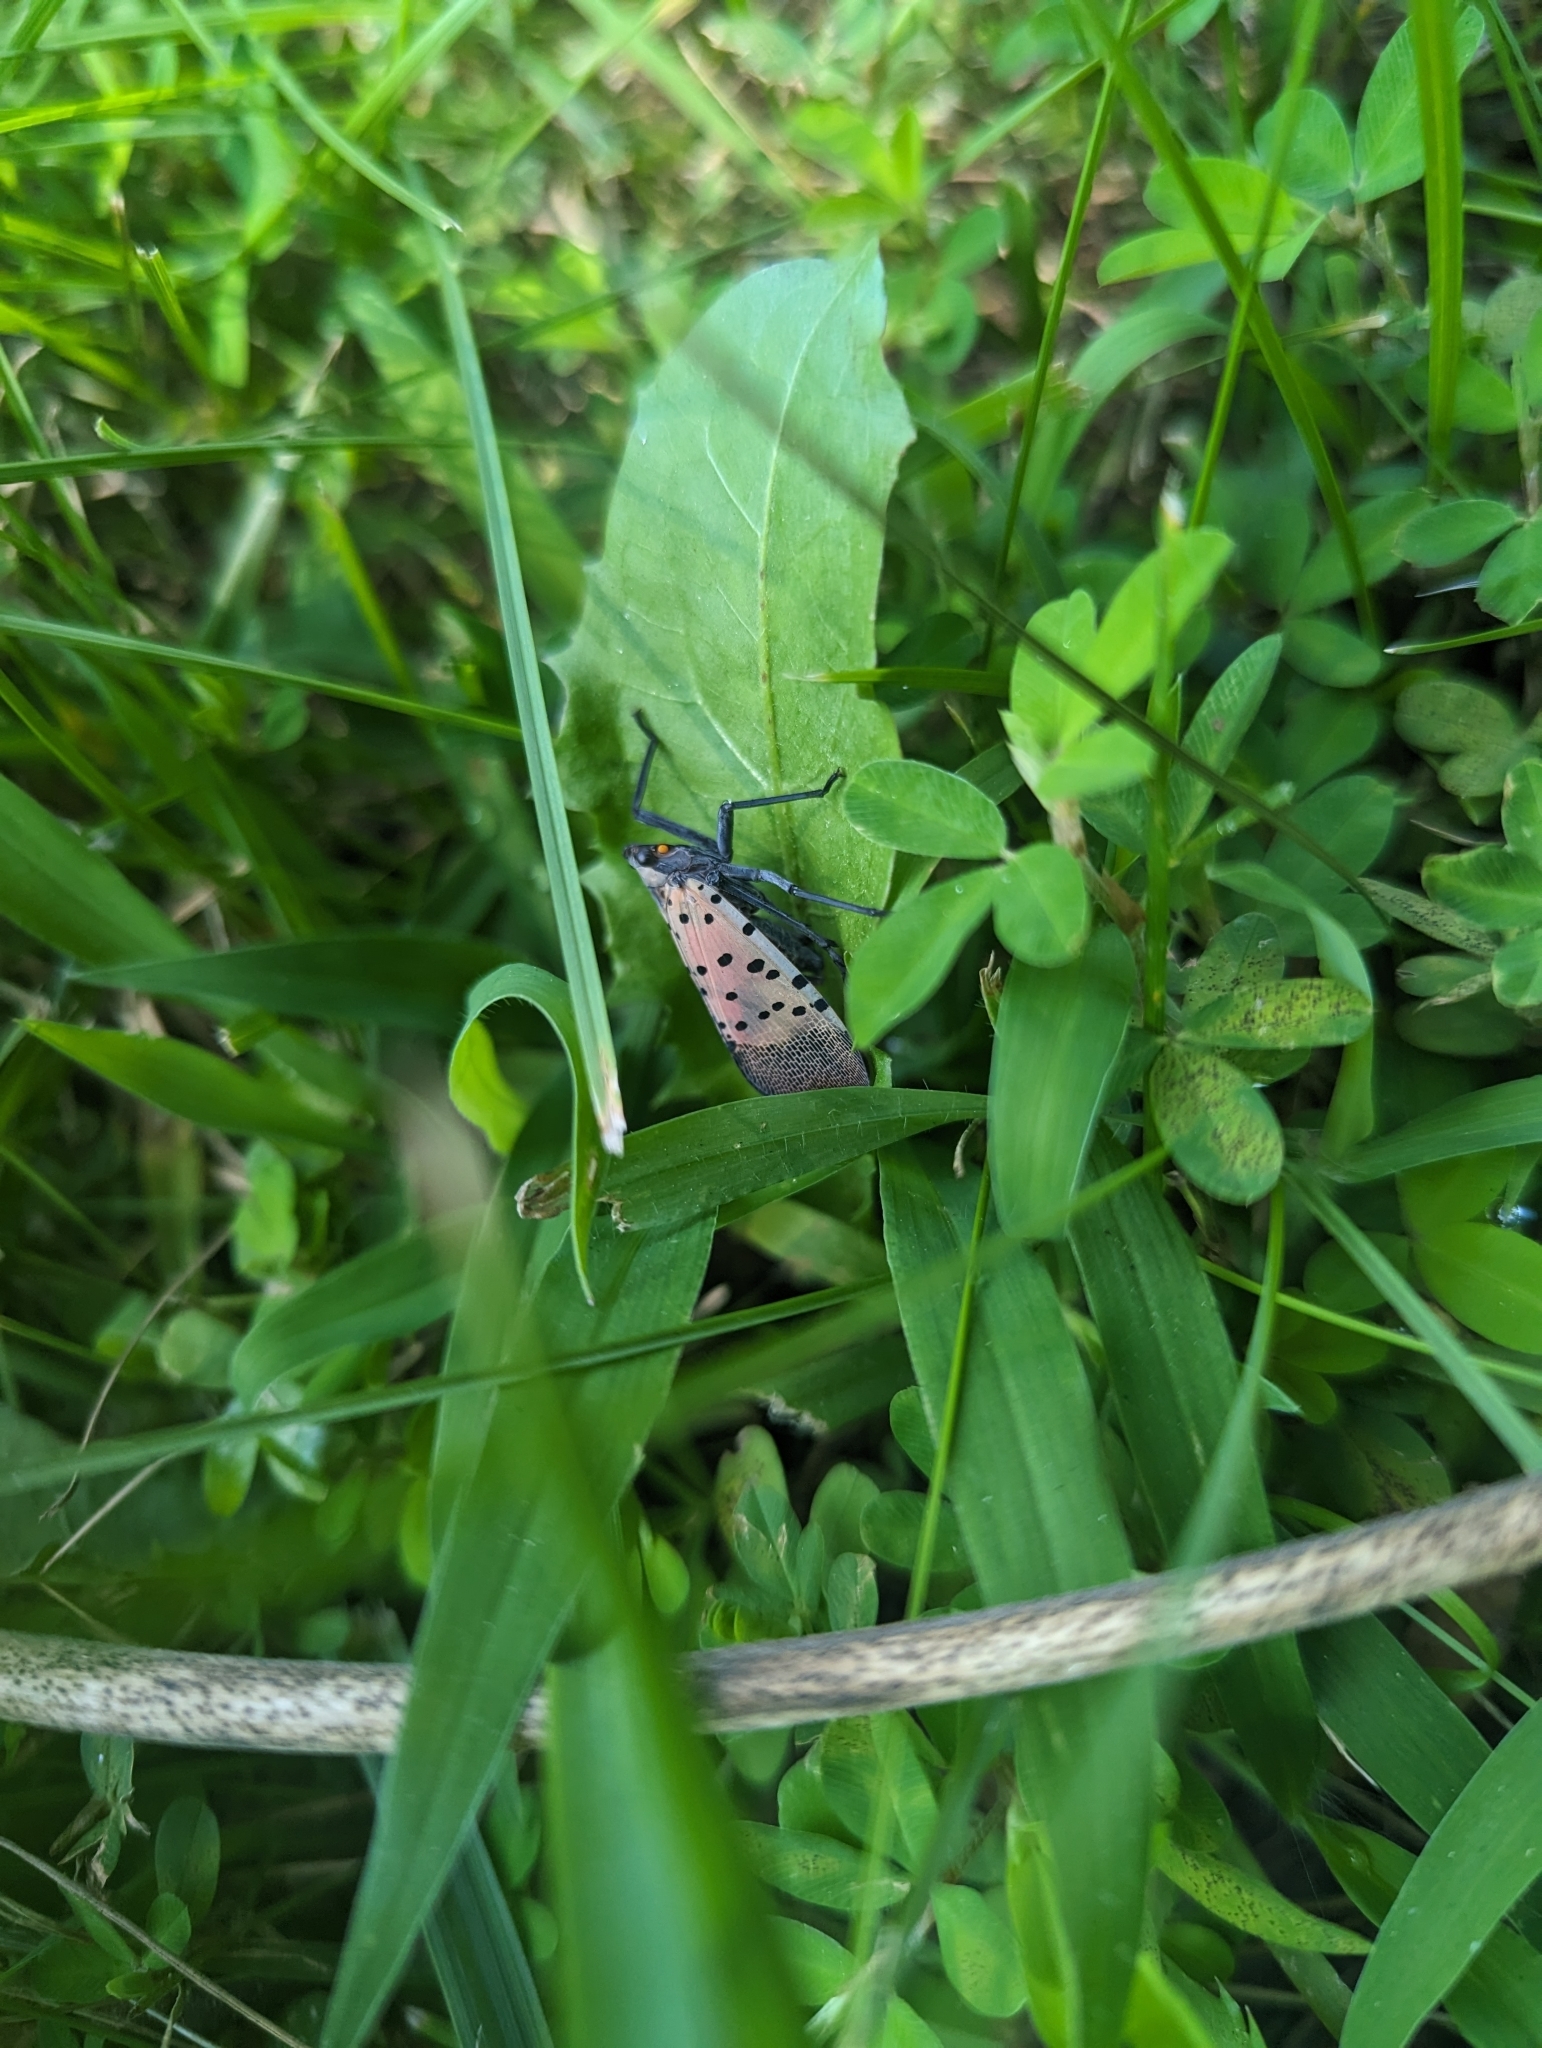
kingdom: Animalia
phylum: Arthropoda
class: Insecta
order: Hemiptera
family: Fulgoridae
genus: Lycorma
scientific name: Lycorma delicatula
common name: Spotted lanternfly
